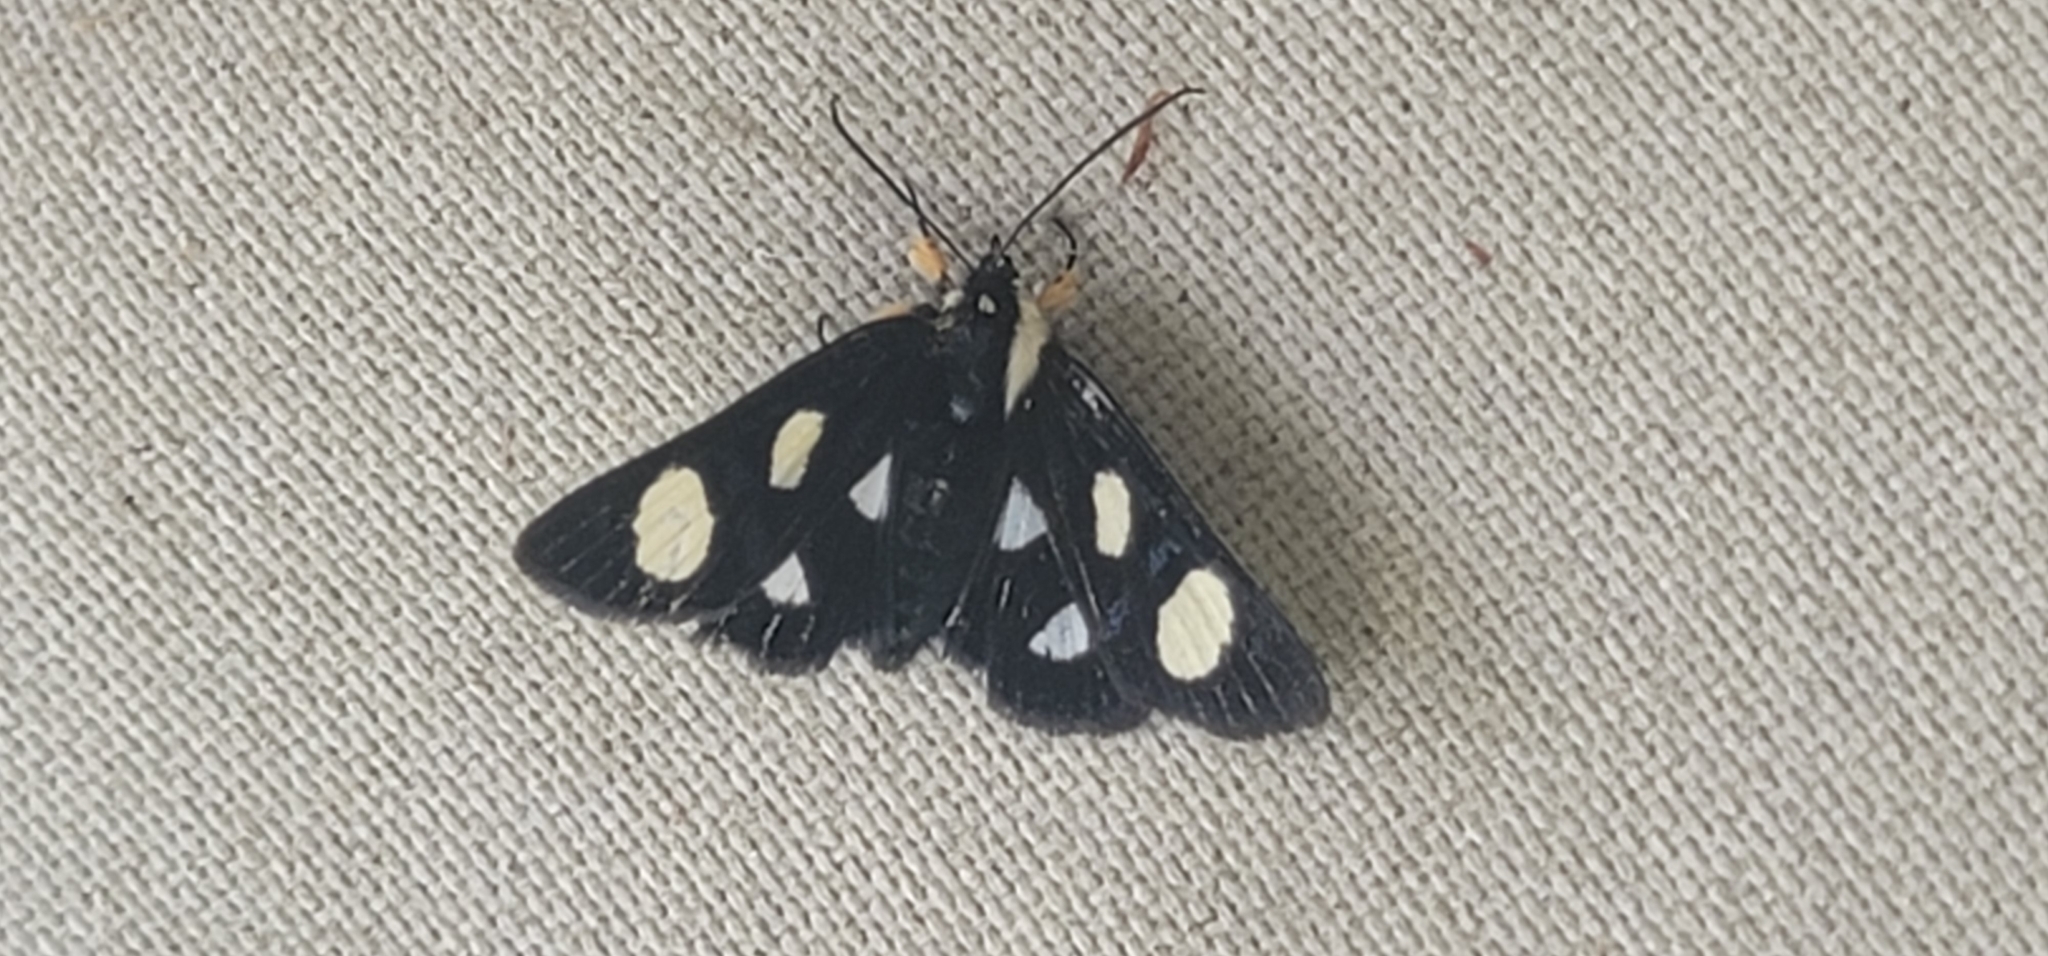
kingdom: Animalia
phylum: Arthropoda
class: Insecta
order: Lepidoptera
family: Noctuidae
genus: Alypia
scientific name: Alypia octomaculata
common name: Eight-spotted forester
